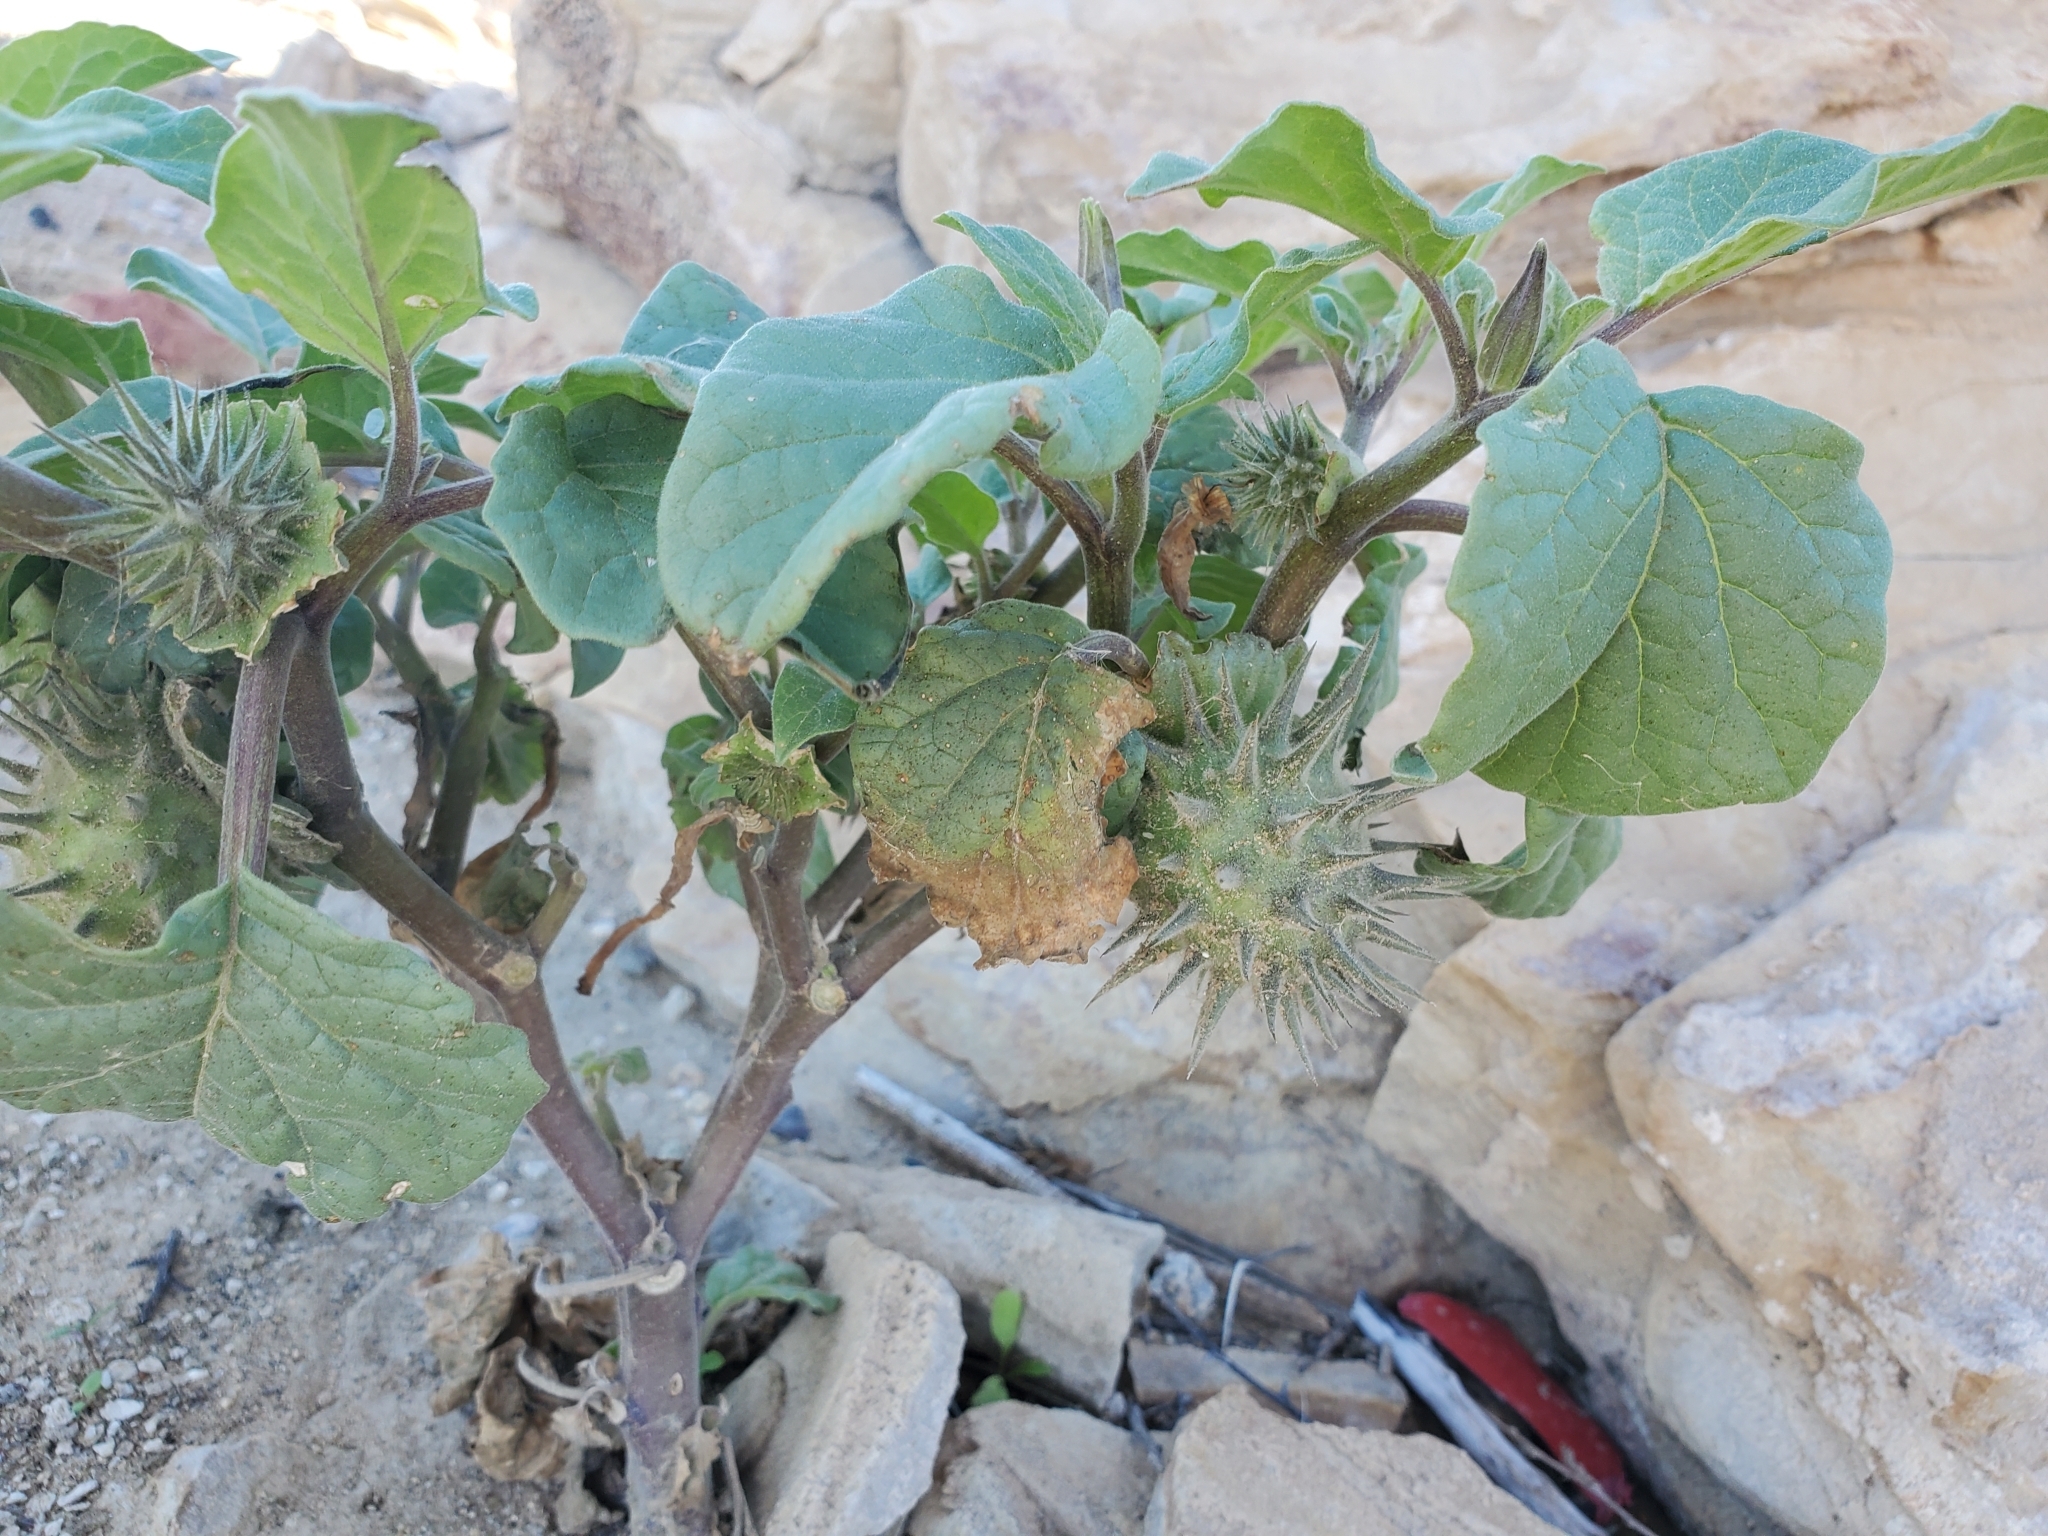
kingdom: Plantae
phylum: Tracheophyta
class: Magnoliopsida
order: Solanales
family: Solanaceae
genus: Datura
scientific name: Datura discolor
